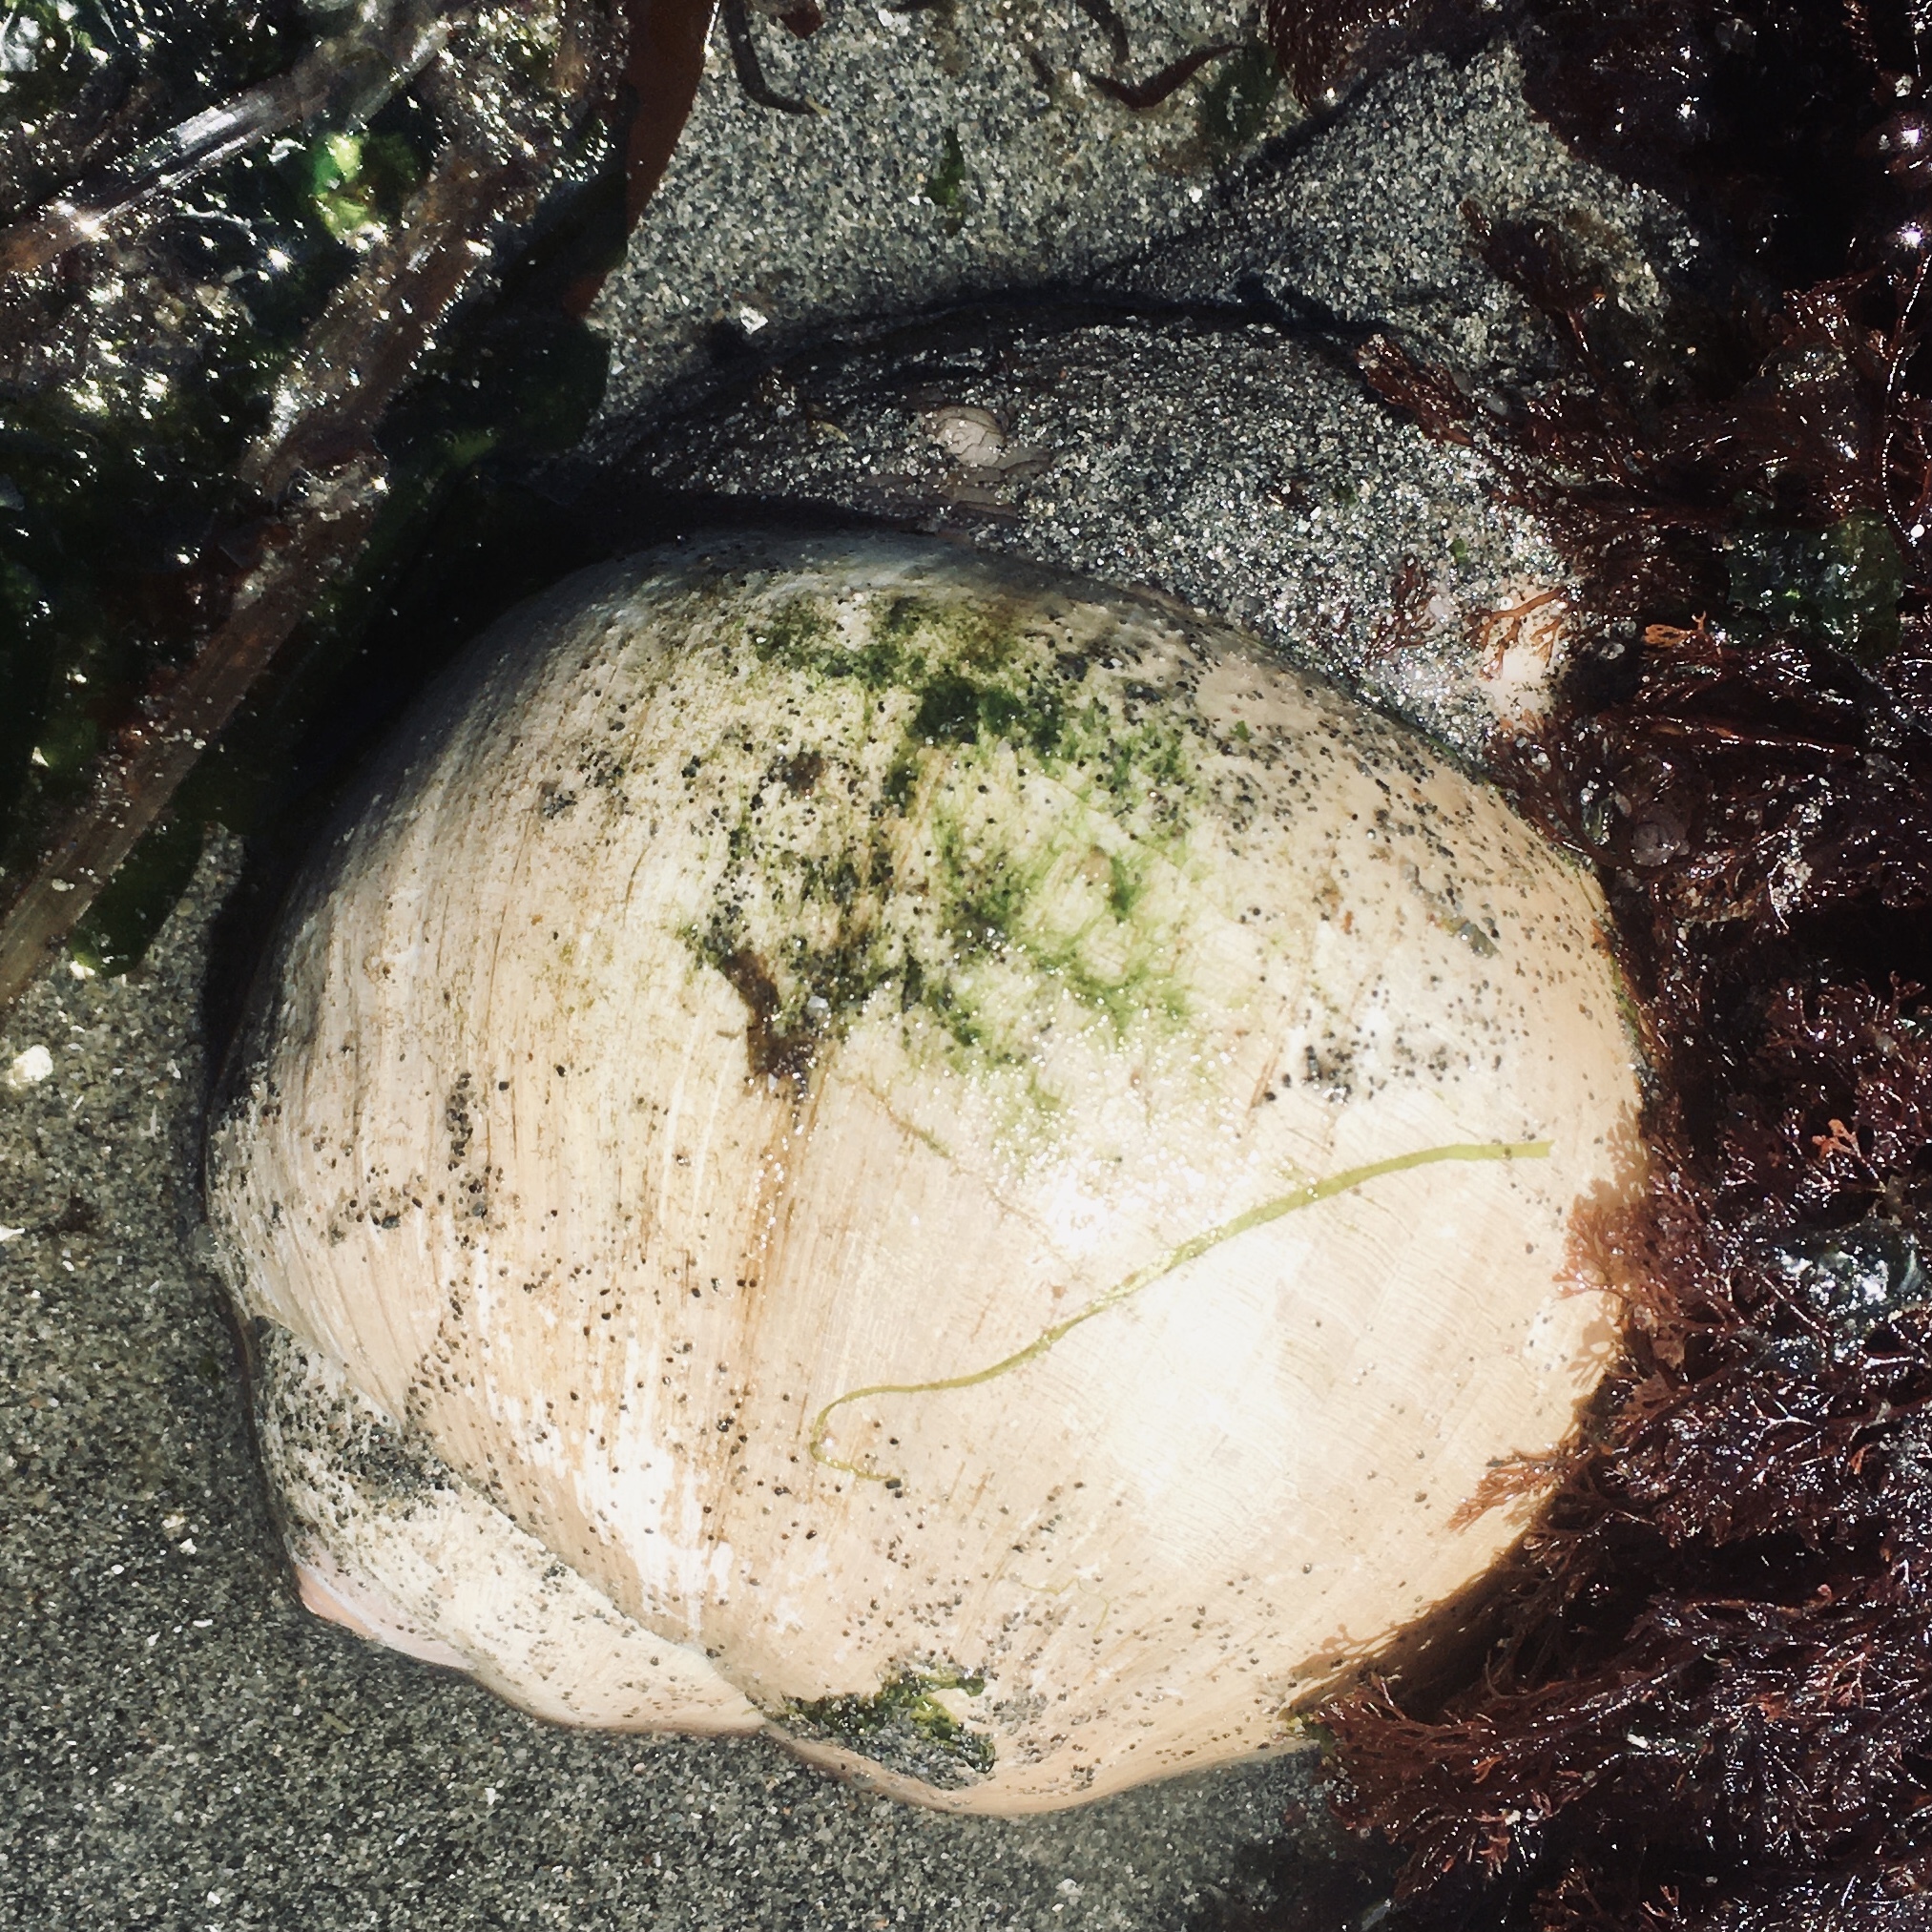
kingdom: Animalia
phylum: Mollusca
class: Gastropoda
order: Littorinimorpha
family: Naticidae
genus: Neverita
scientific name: Neverita lewisii
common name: Lewis' moonsnail
